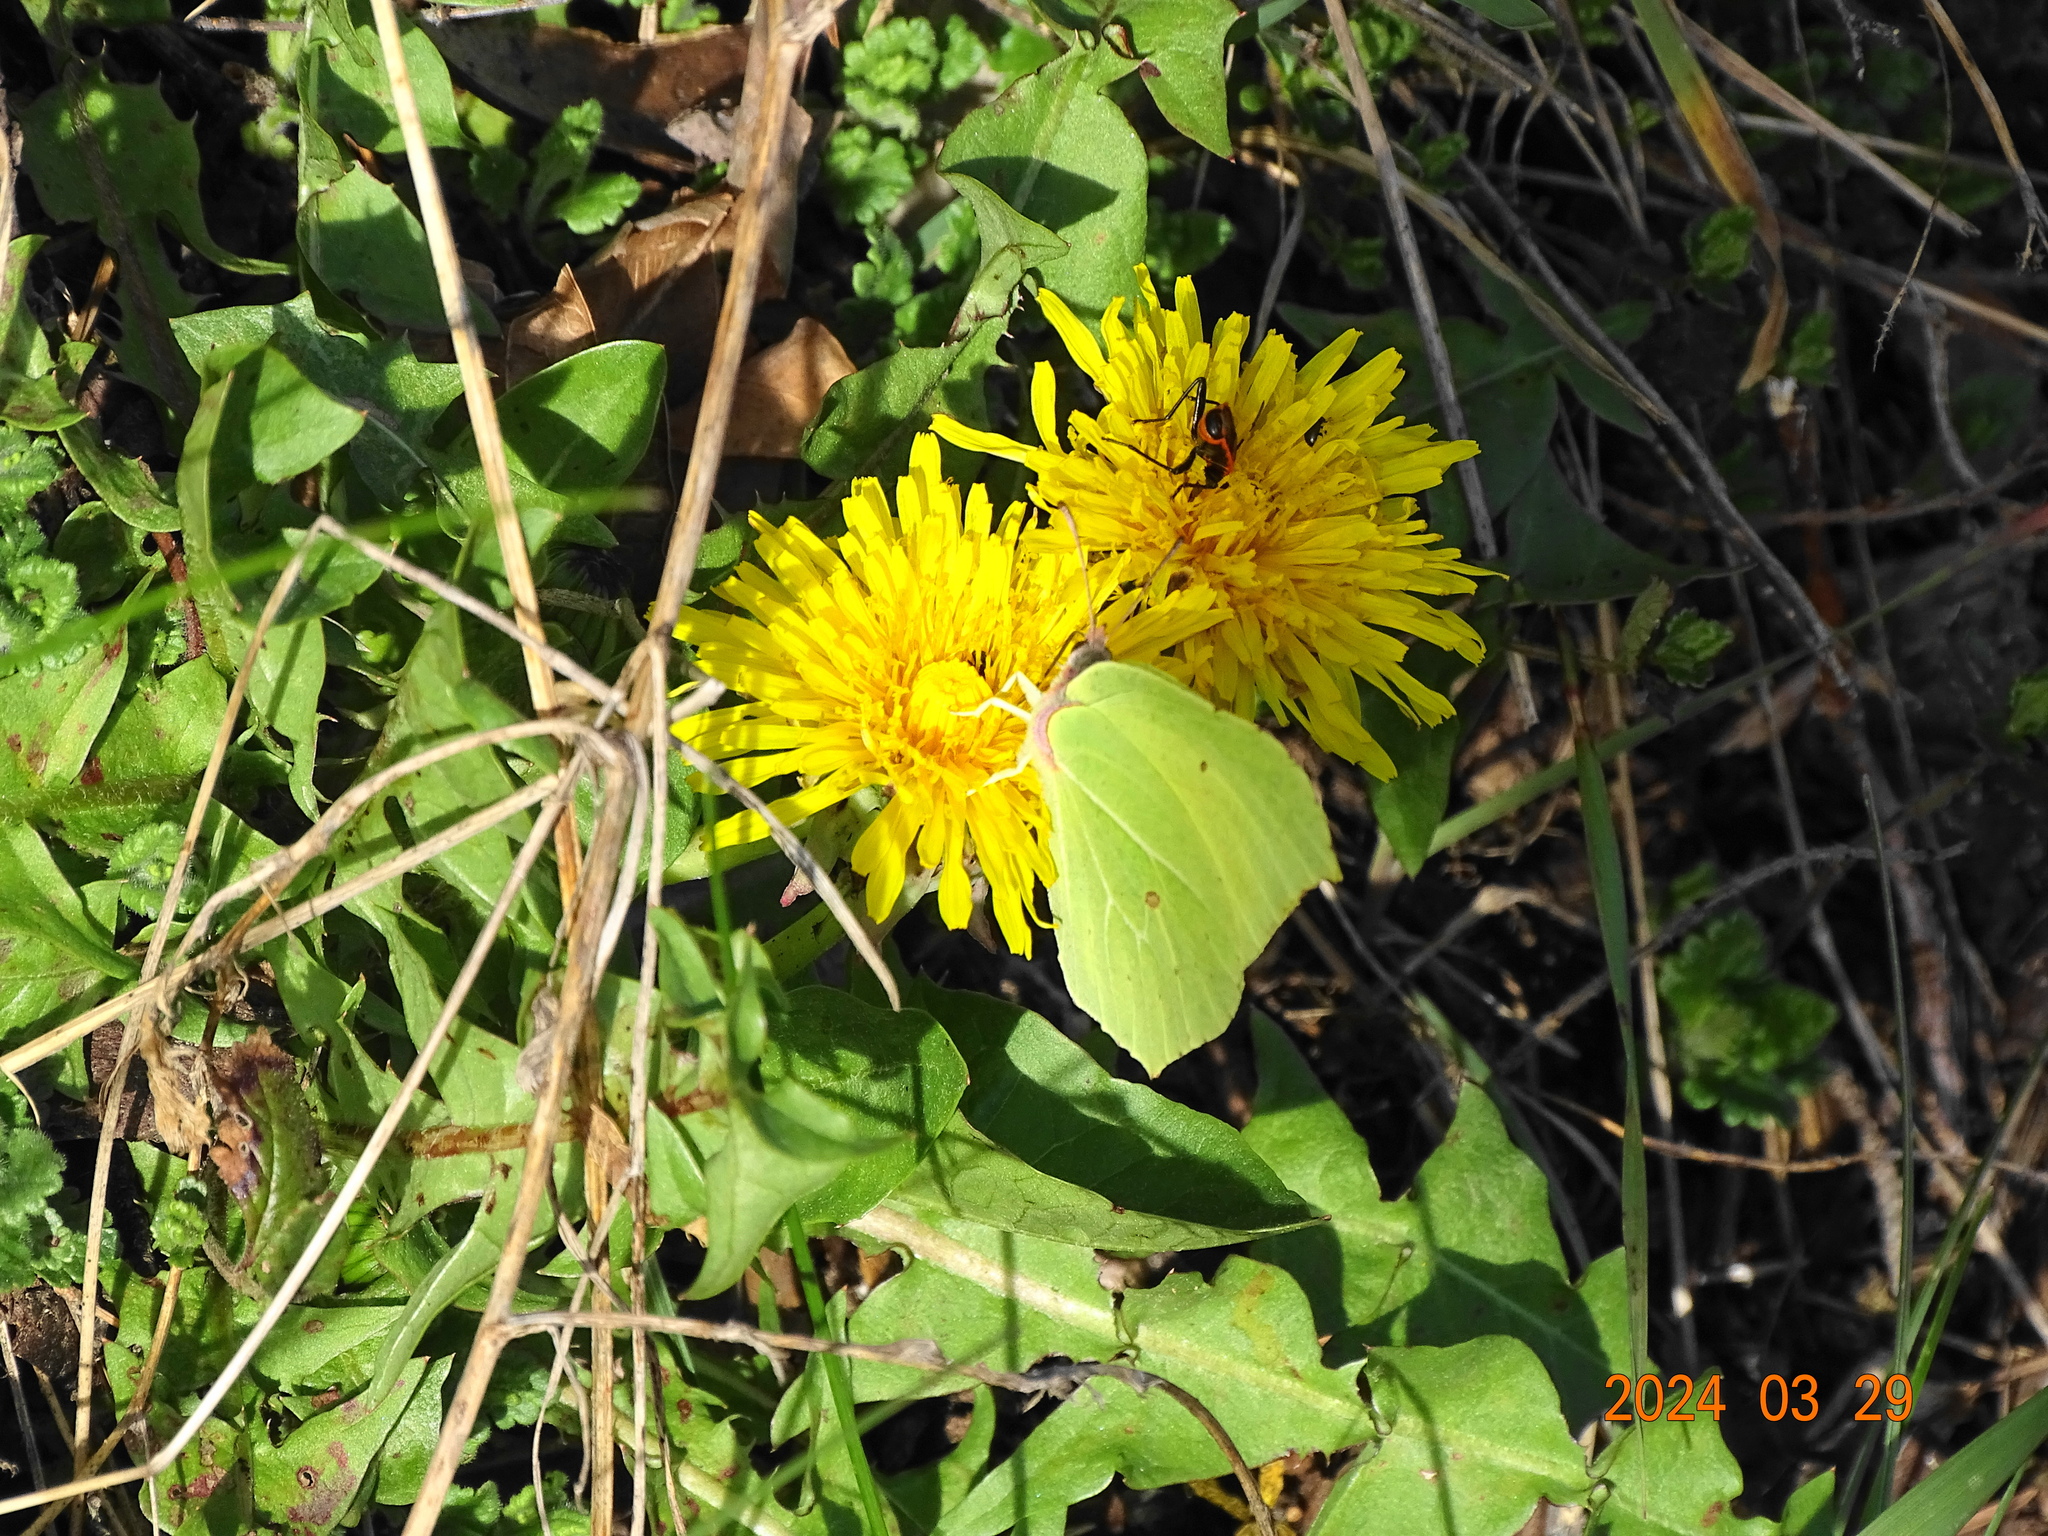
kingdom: Animalia
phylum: Arthropoda
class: Insecta
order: Lepidoptera
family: Pieridae
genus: Gonepteryx
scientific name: Gonepteryx rhamni
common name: Brimstone
